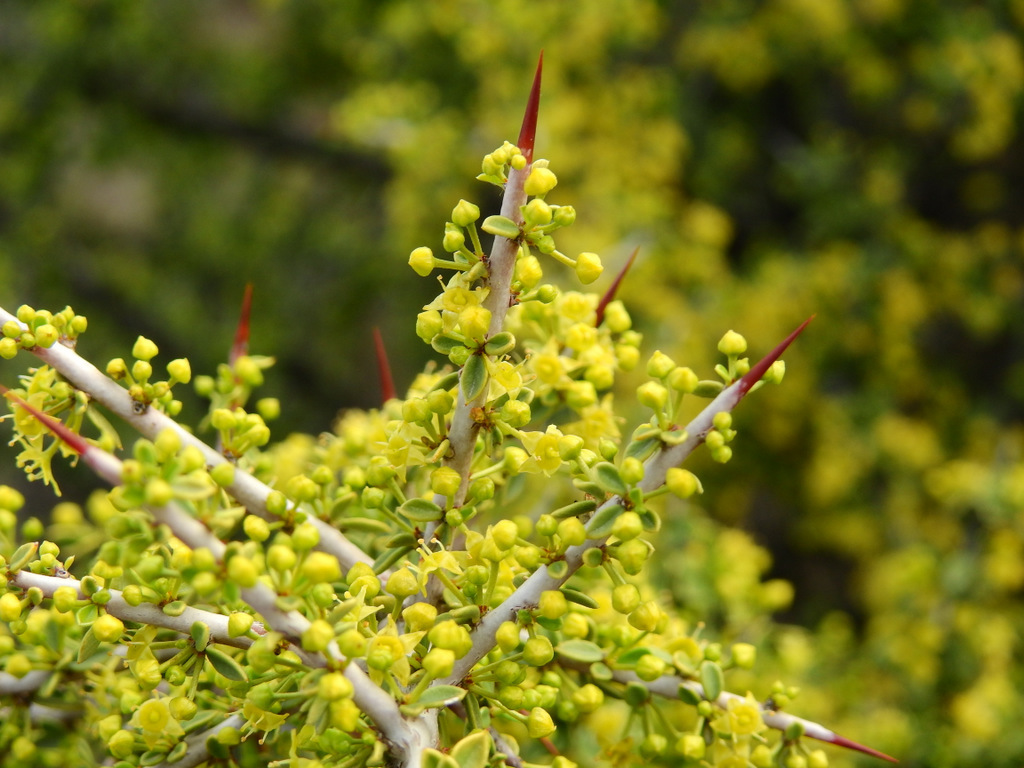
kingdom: Plantae
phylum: Tracheophyta
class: Magnoliopsida
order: Rosales
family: Rhamnaceae
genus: Condalia
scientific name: Condalia microphylla
